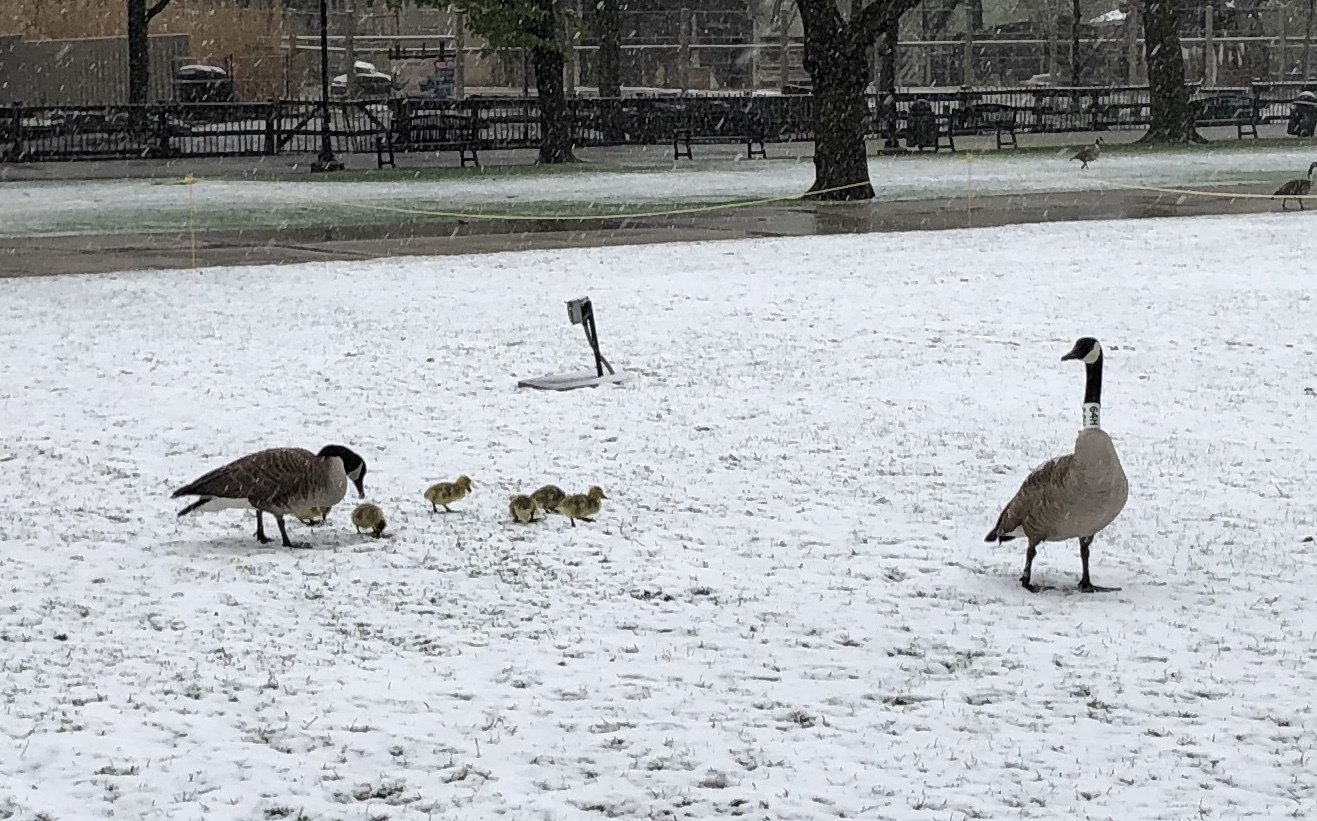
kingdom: Animalia
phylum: Chordata
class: Aves
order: Anseriformes
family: Anatidae
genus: Branta
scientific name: Branta canadensis
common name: Canada goose
